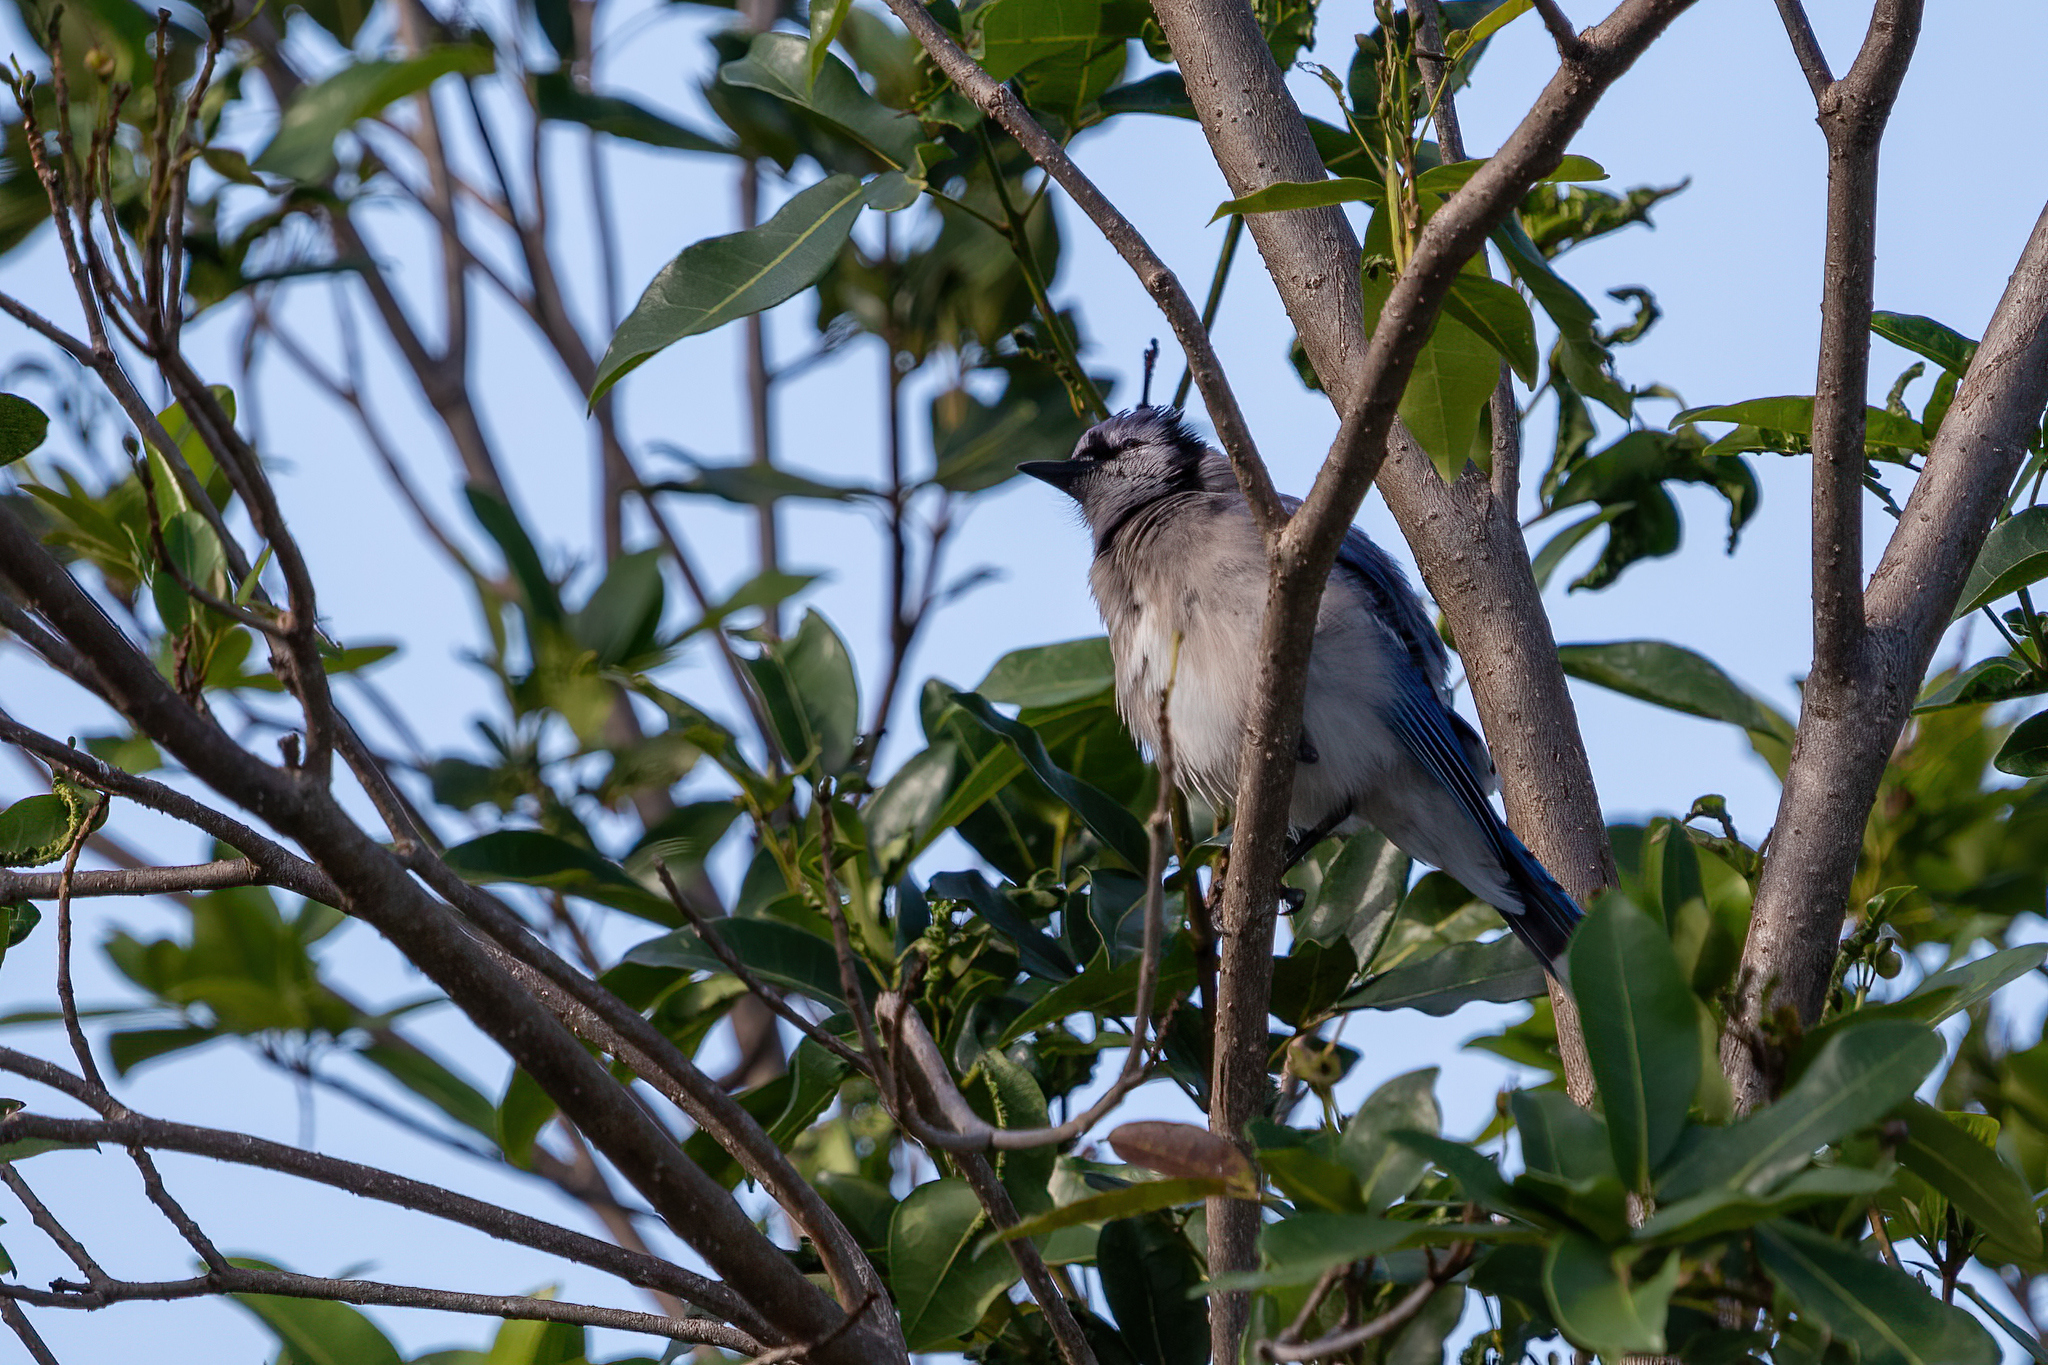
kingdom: Animalia
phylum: Chordata
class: Aves
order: Passeriformes
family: Corvidae
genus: Cyanocitta
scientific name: Cyanocitta cristata
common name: Blue jay
